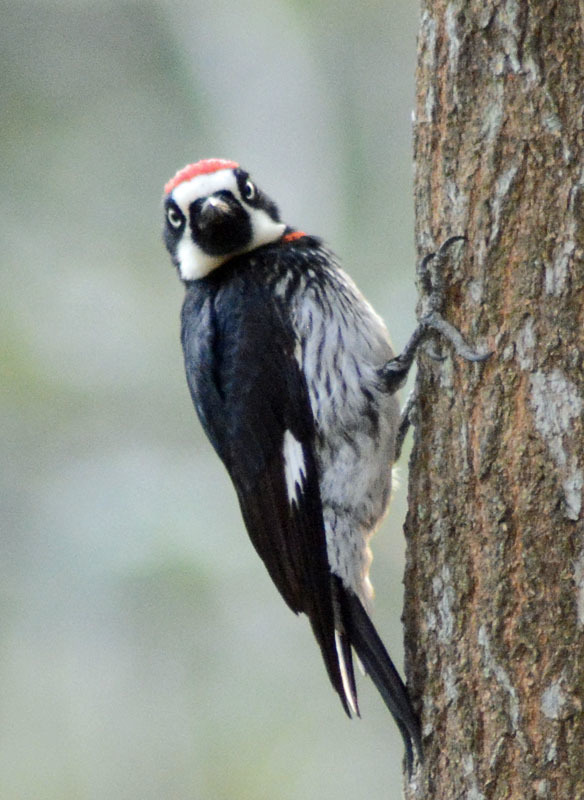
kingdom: Animalia
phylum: Chordata
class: Aves
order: Piciformes
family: Picidae
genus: Melanerpes
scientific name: Melanerpes formicivorus
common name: Acorn woodpecker
